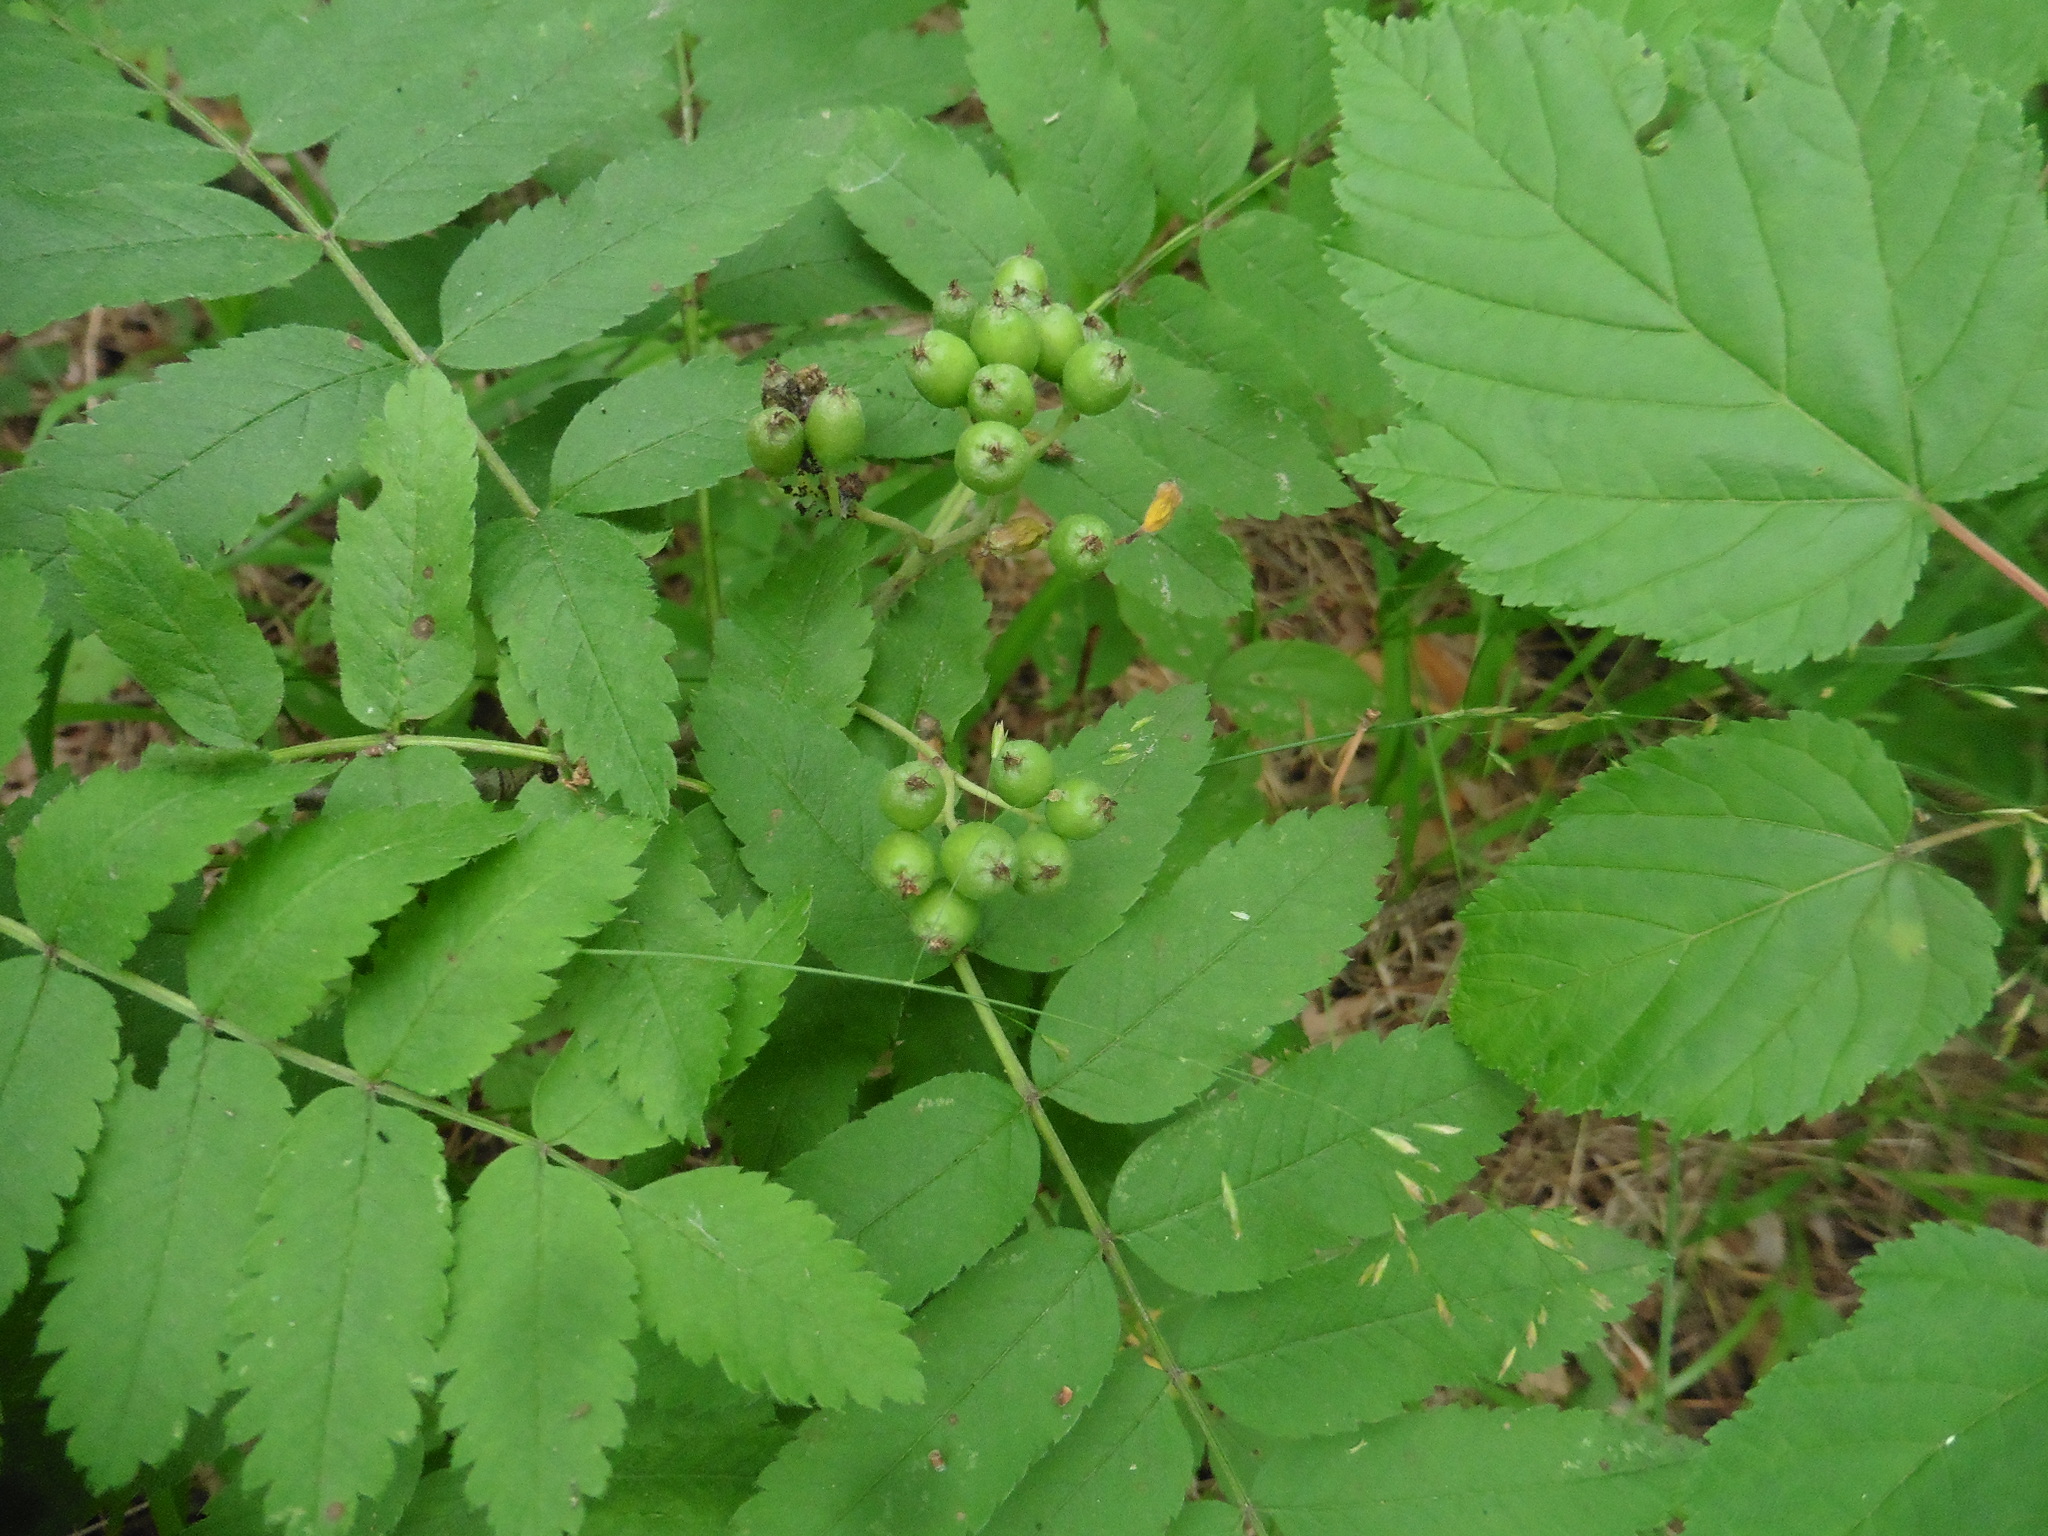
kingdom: Plantae
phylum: Tracheophyta
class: Magnoliopsida
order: Rosales
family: Rosaceae
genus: Sorbus
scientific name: Sorbus aucuparia
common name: Rowan
